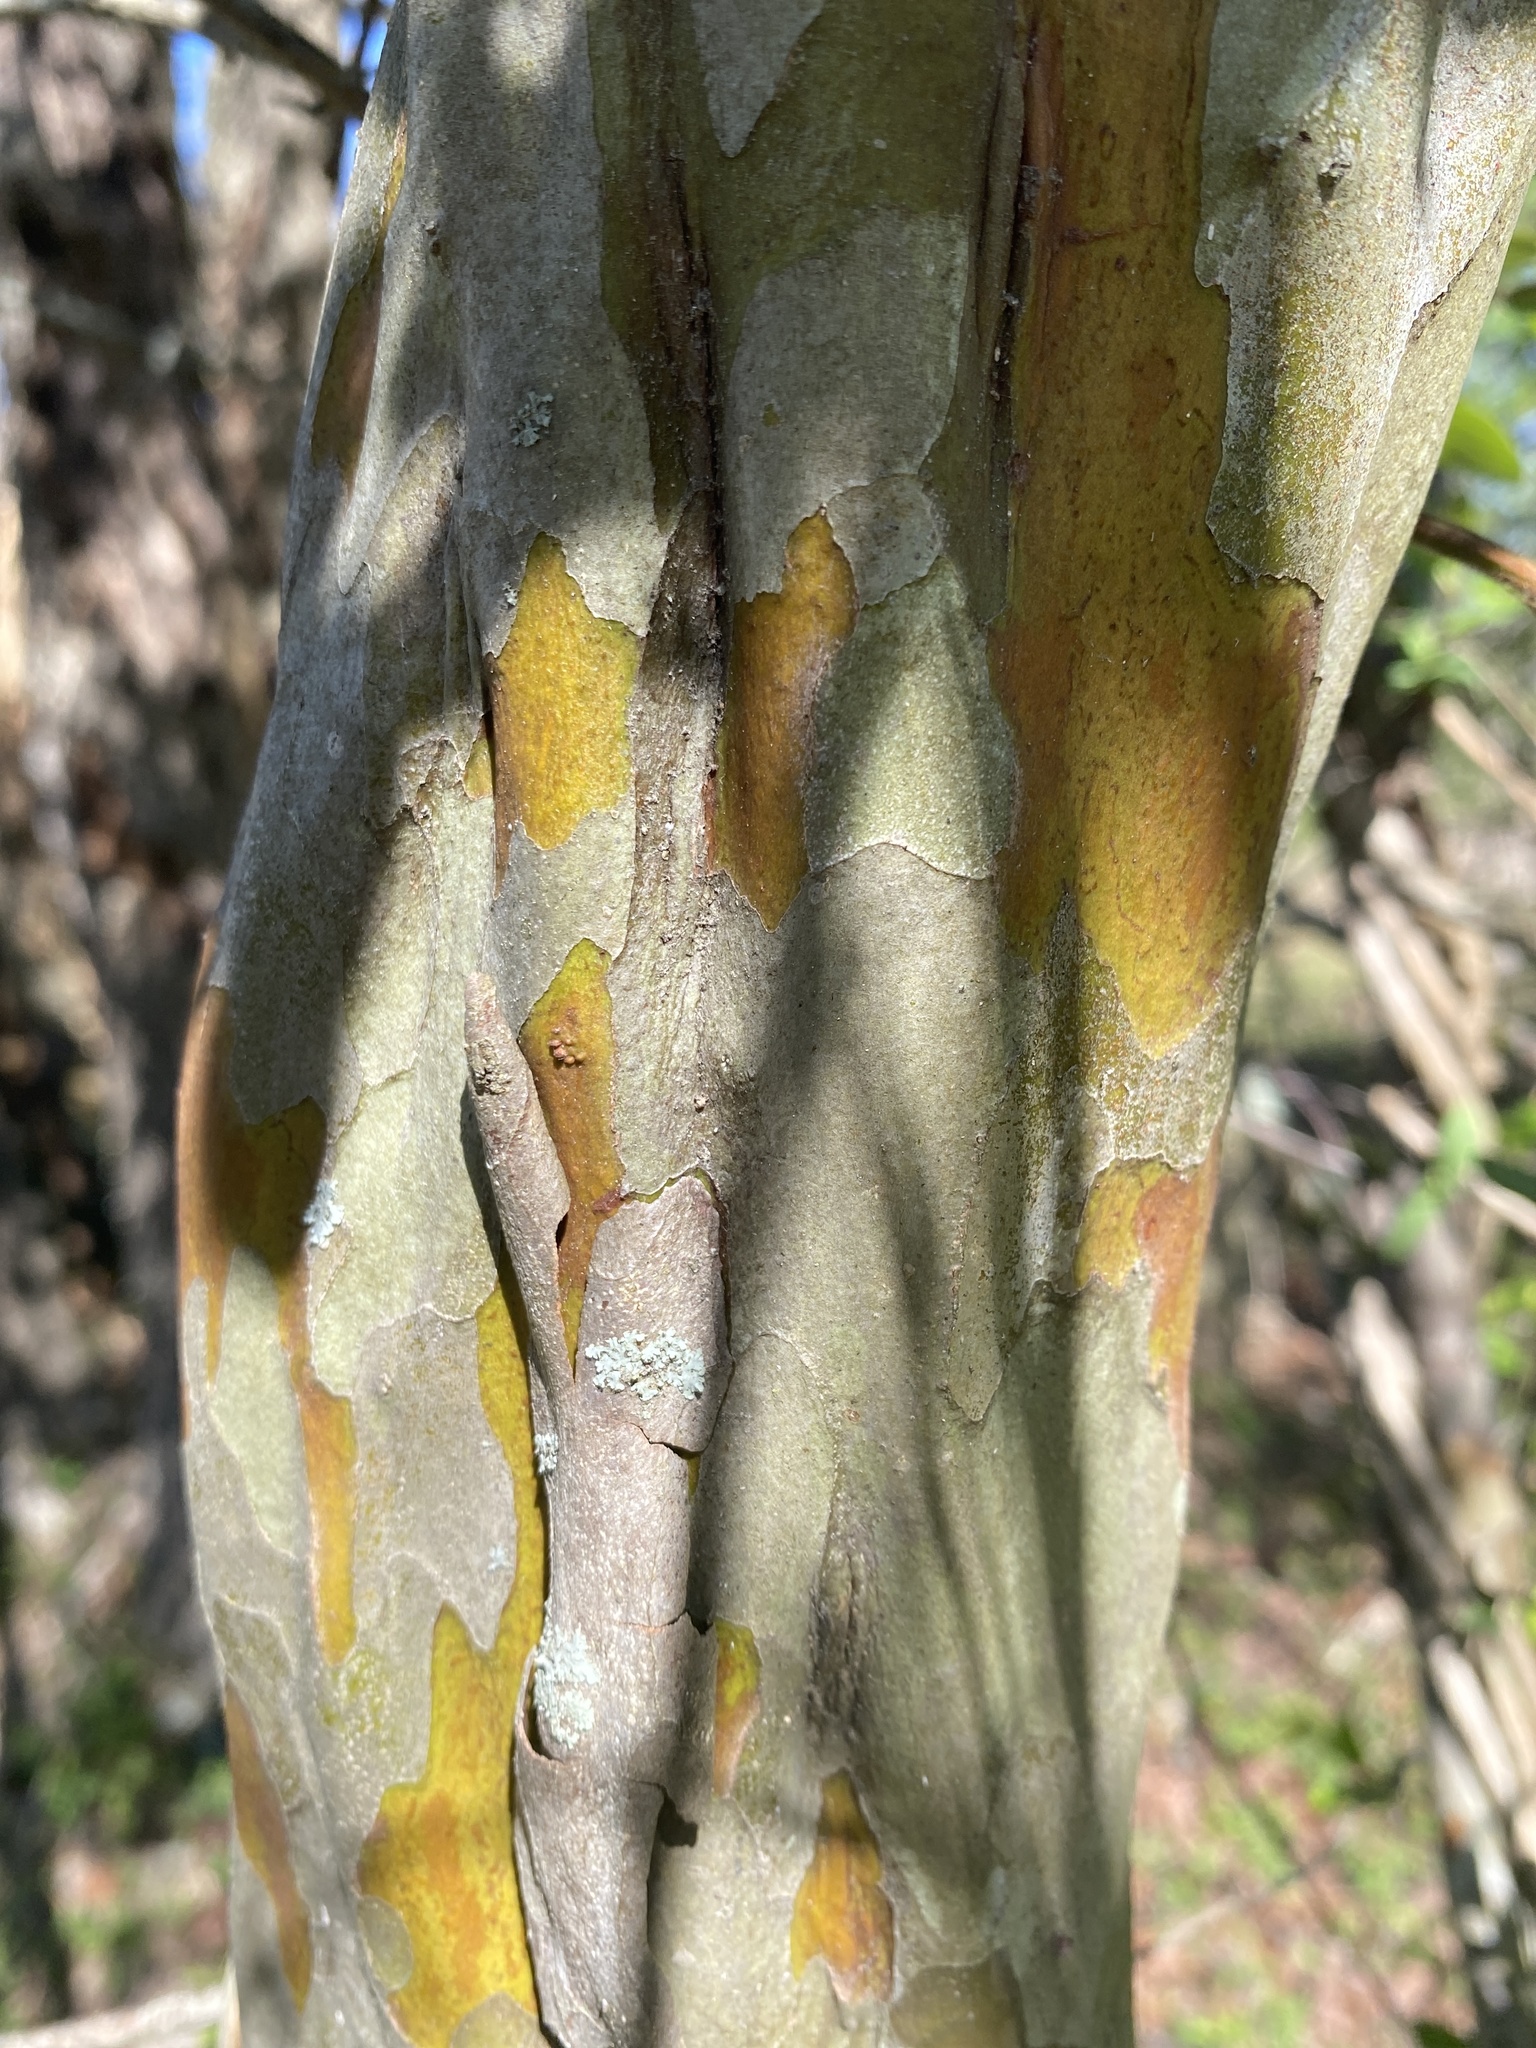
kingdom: Plantae
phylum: Tracheophyta
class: Magnoliopsida
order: Rosales
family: Rosaceae
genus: Crataegus
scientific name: Crataegus spathulata
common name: Littlehip hawthorn
